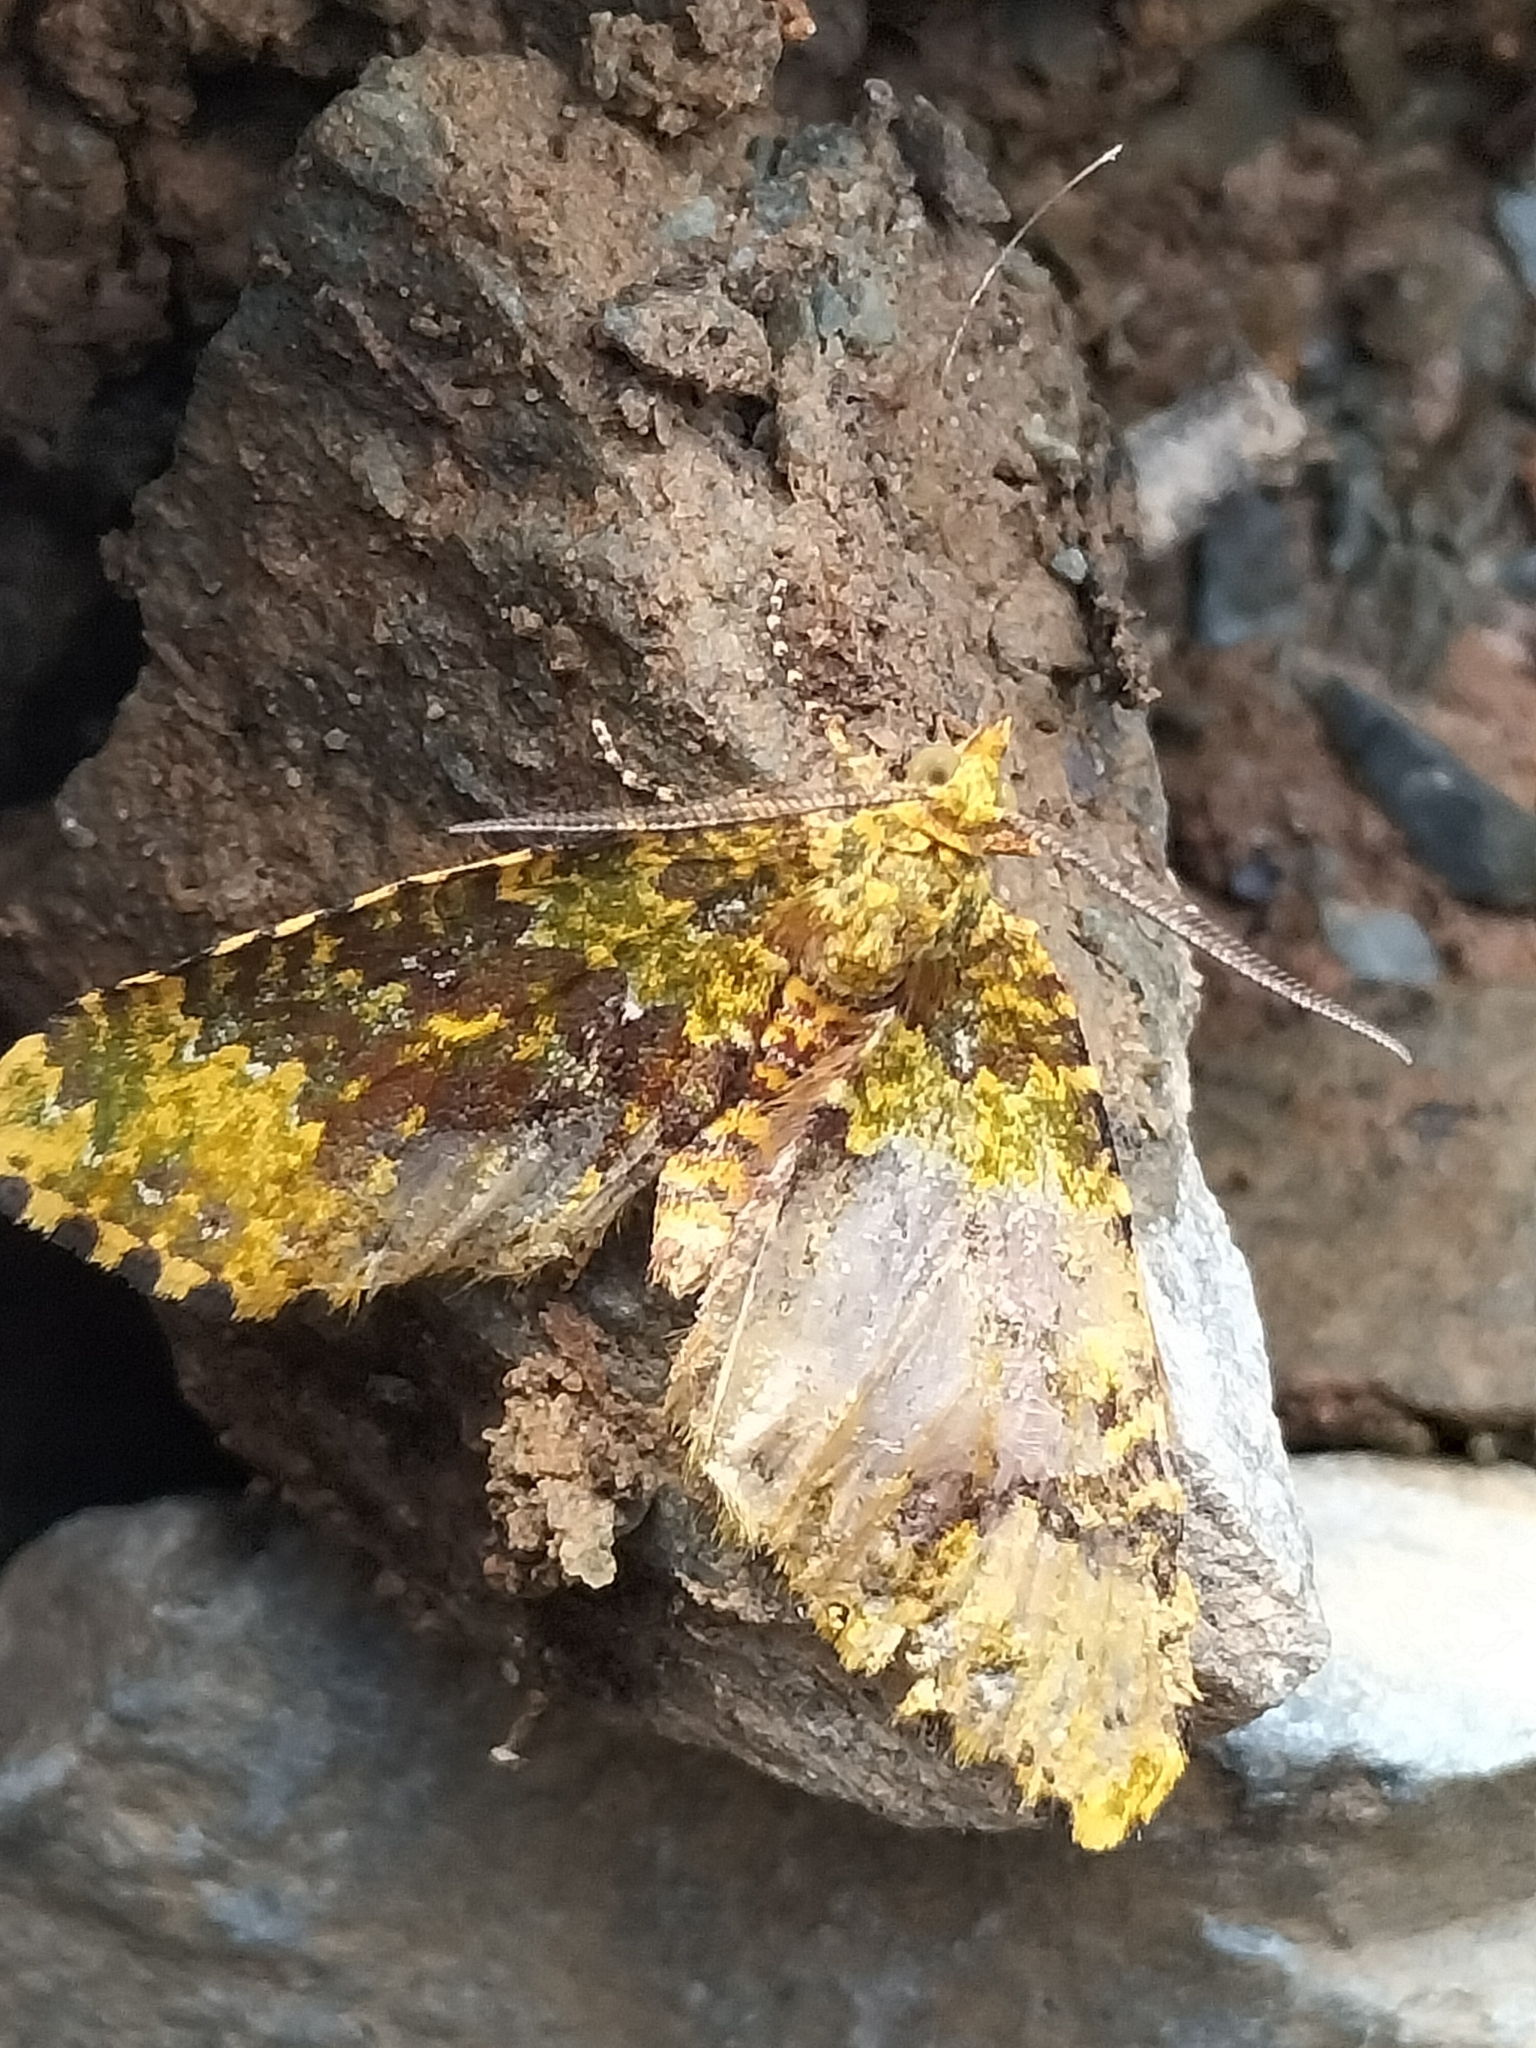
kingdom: Animalia
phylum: Arthropoda
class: Insecta
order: Lepidoptera
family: Geometridae
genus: Asaphodes
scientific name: Asaphodes prasinias
